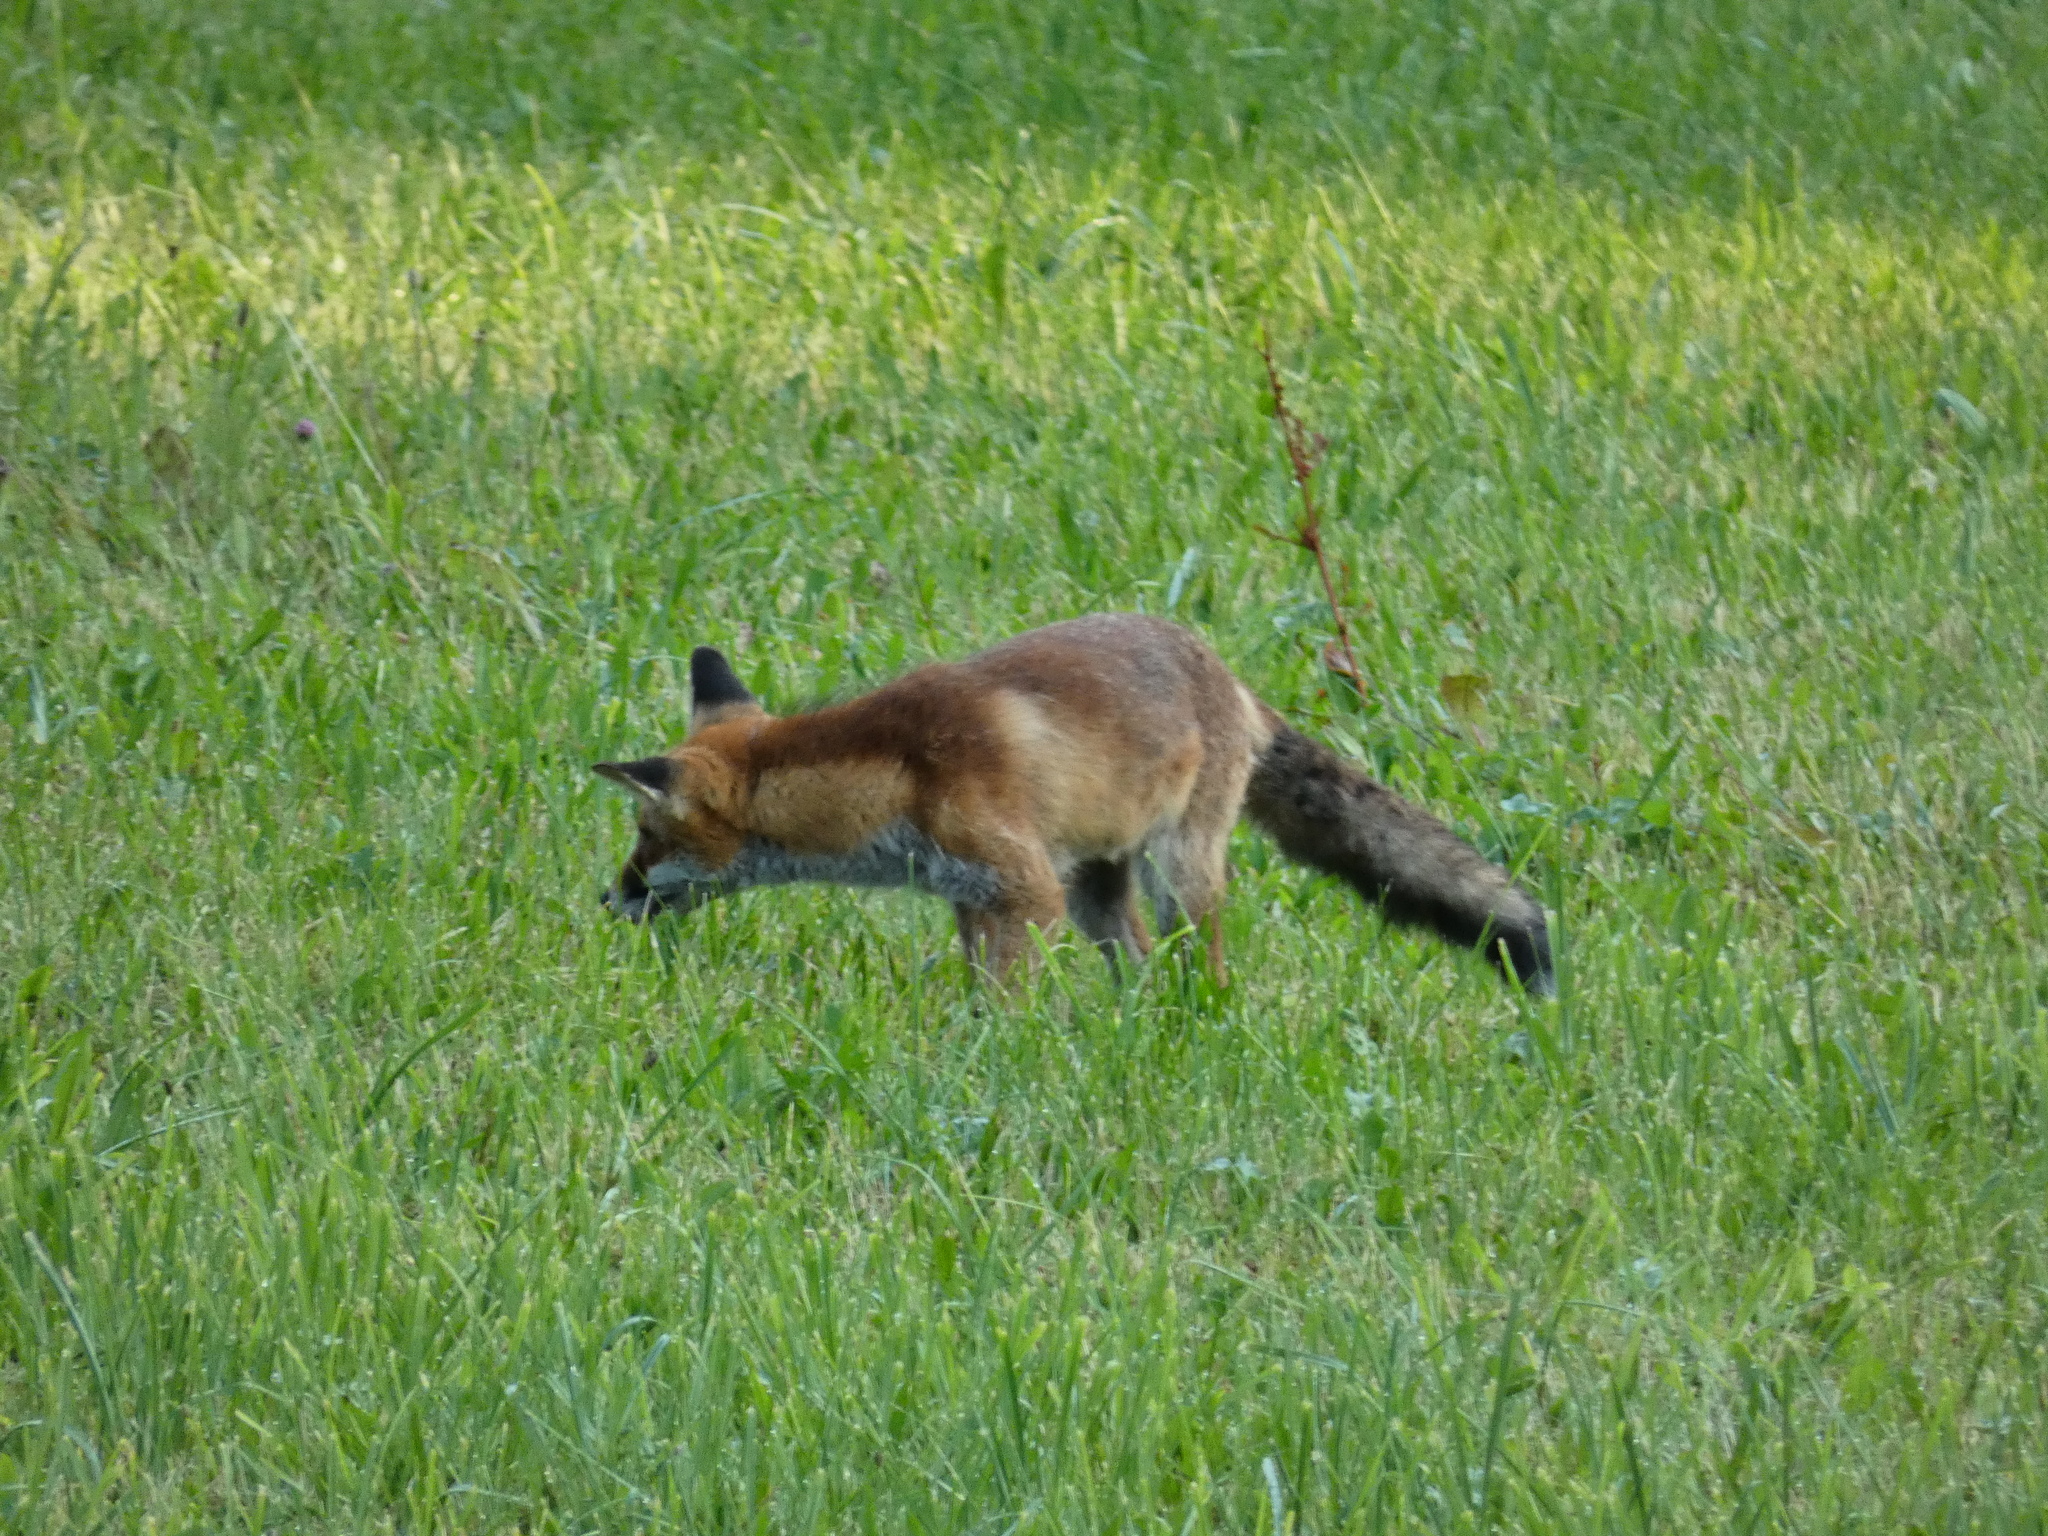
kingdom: Animalia
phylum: Chordata
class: Mammalia
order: Carnivora
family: Canidae
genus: Vulpes
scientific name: Vulpes vulpes
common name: Red fox
